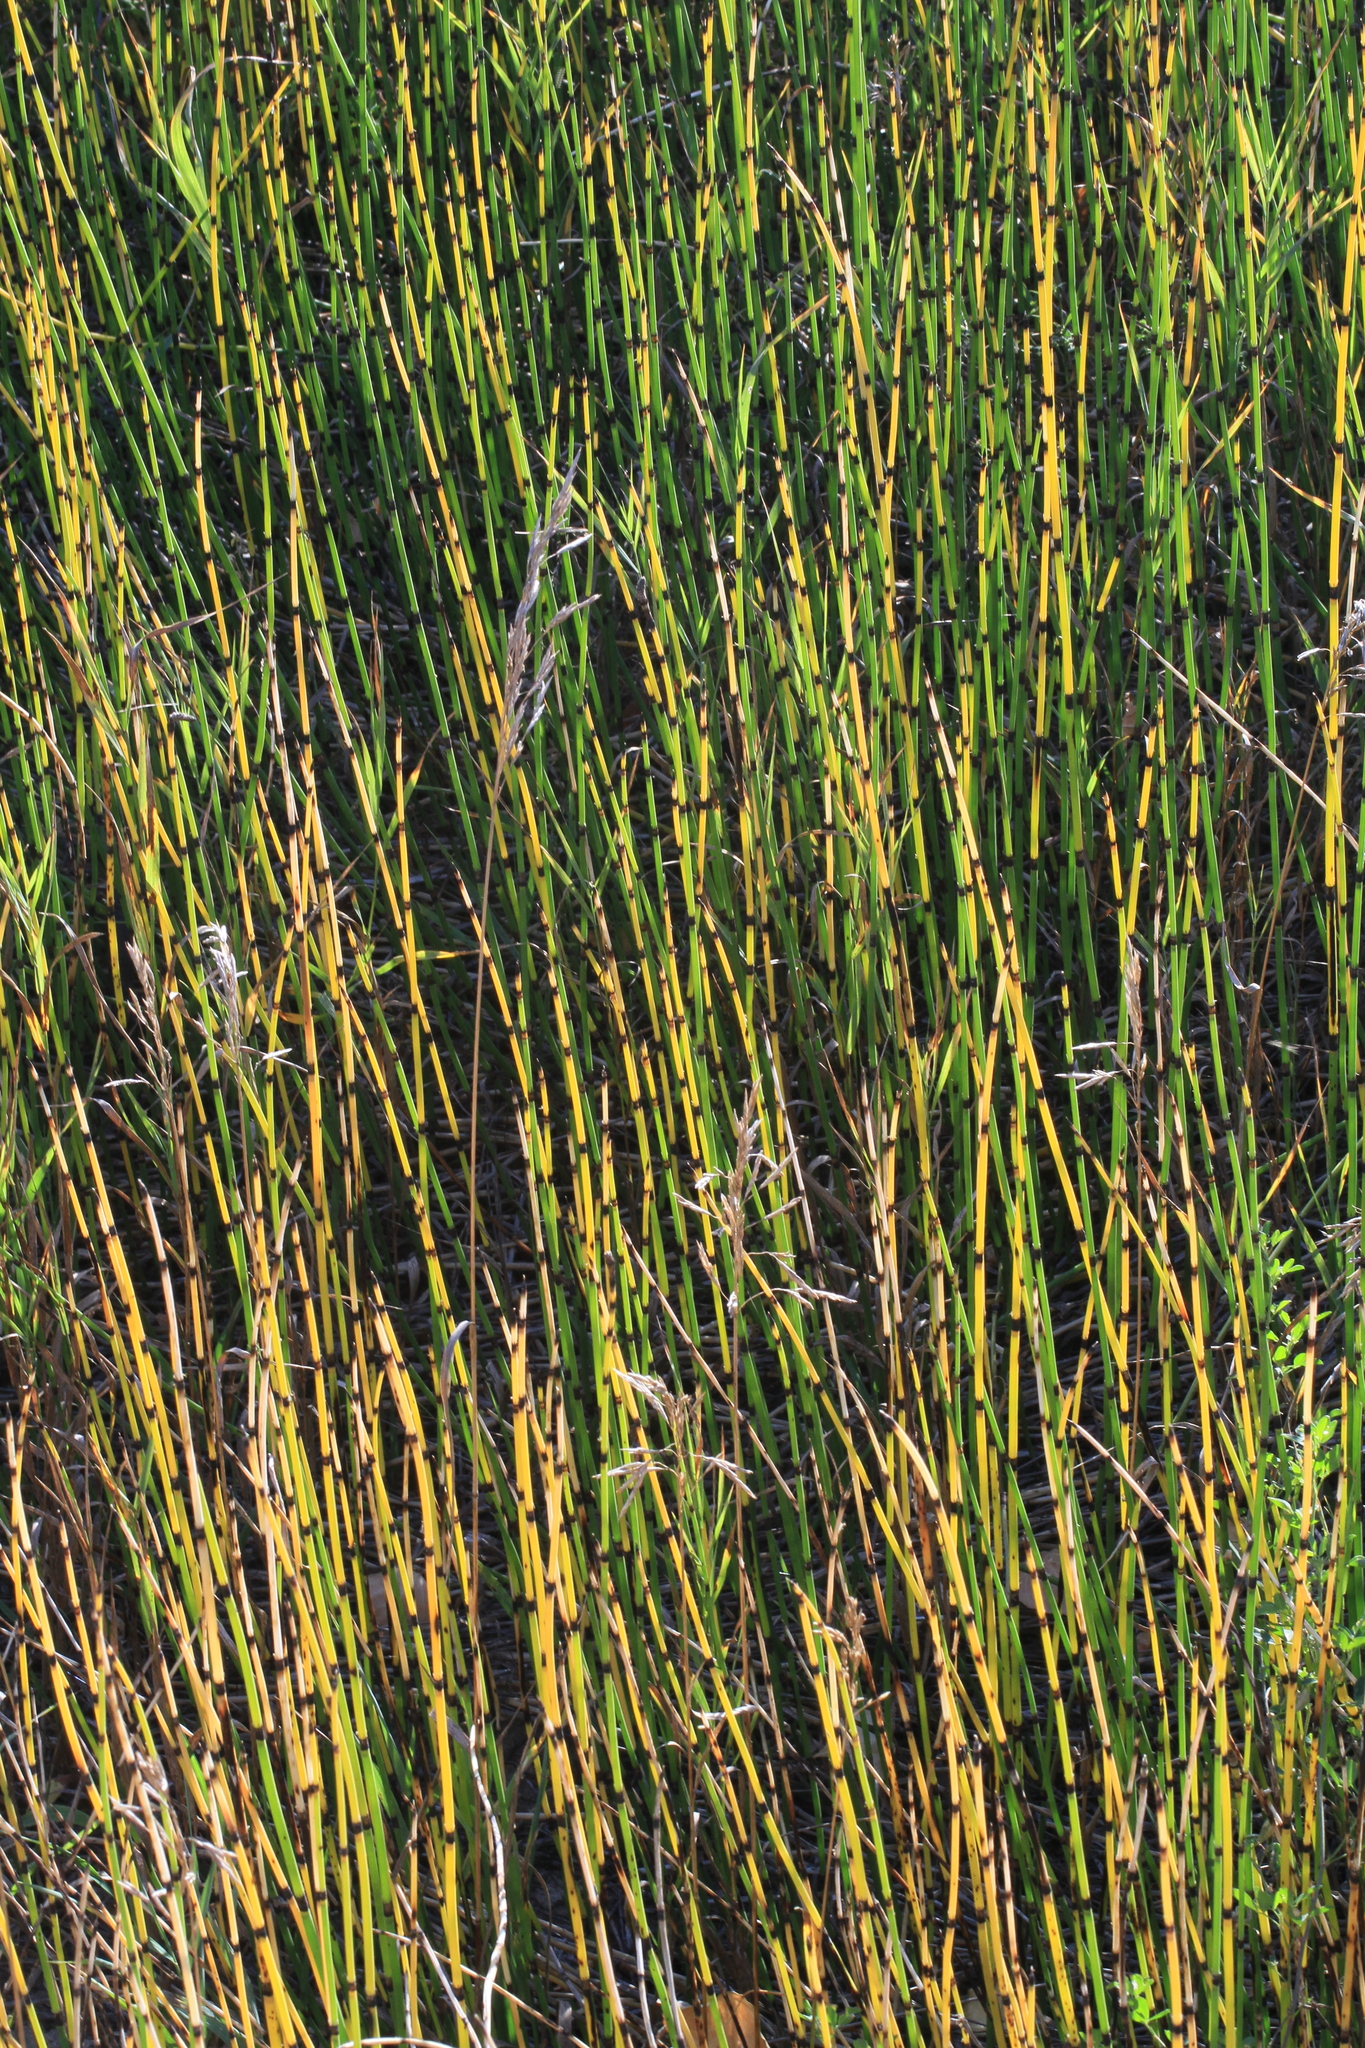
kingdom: Plantae
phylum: Tracheophyta
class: Polypodiopsida
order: Equisetales
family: Equisetaceae
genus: Equisetum
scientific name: Equisetum hyemale
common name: Rough horsetail
